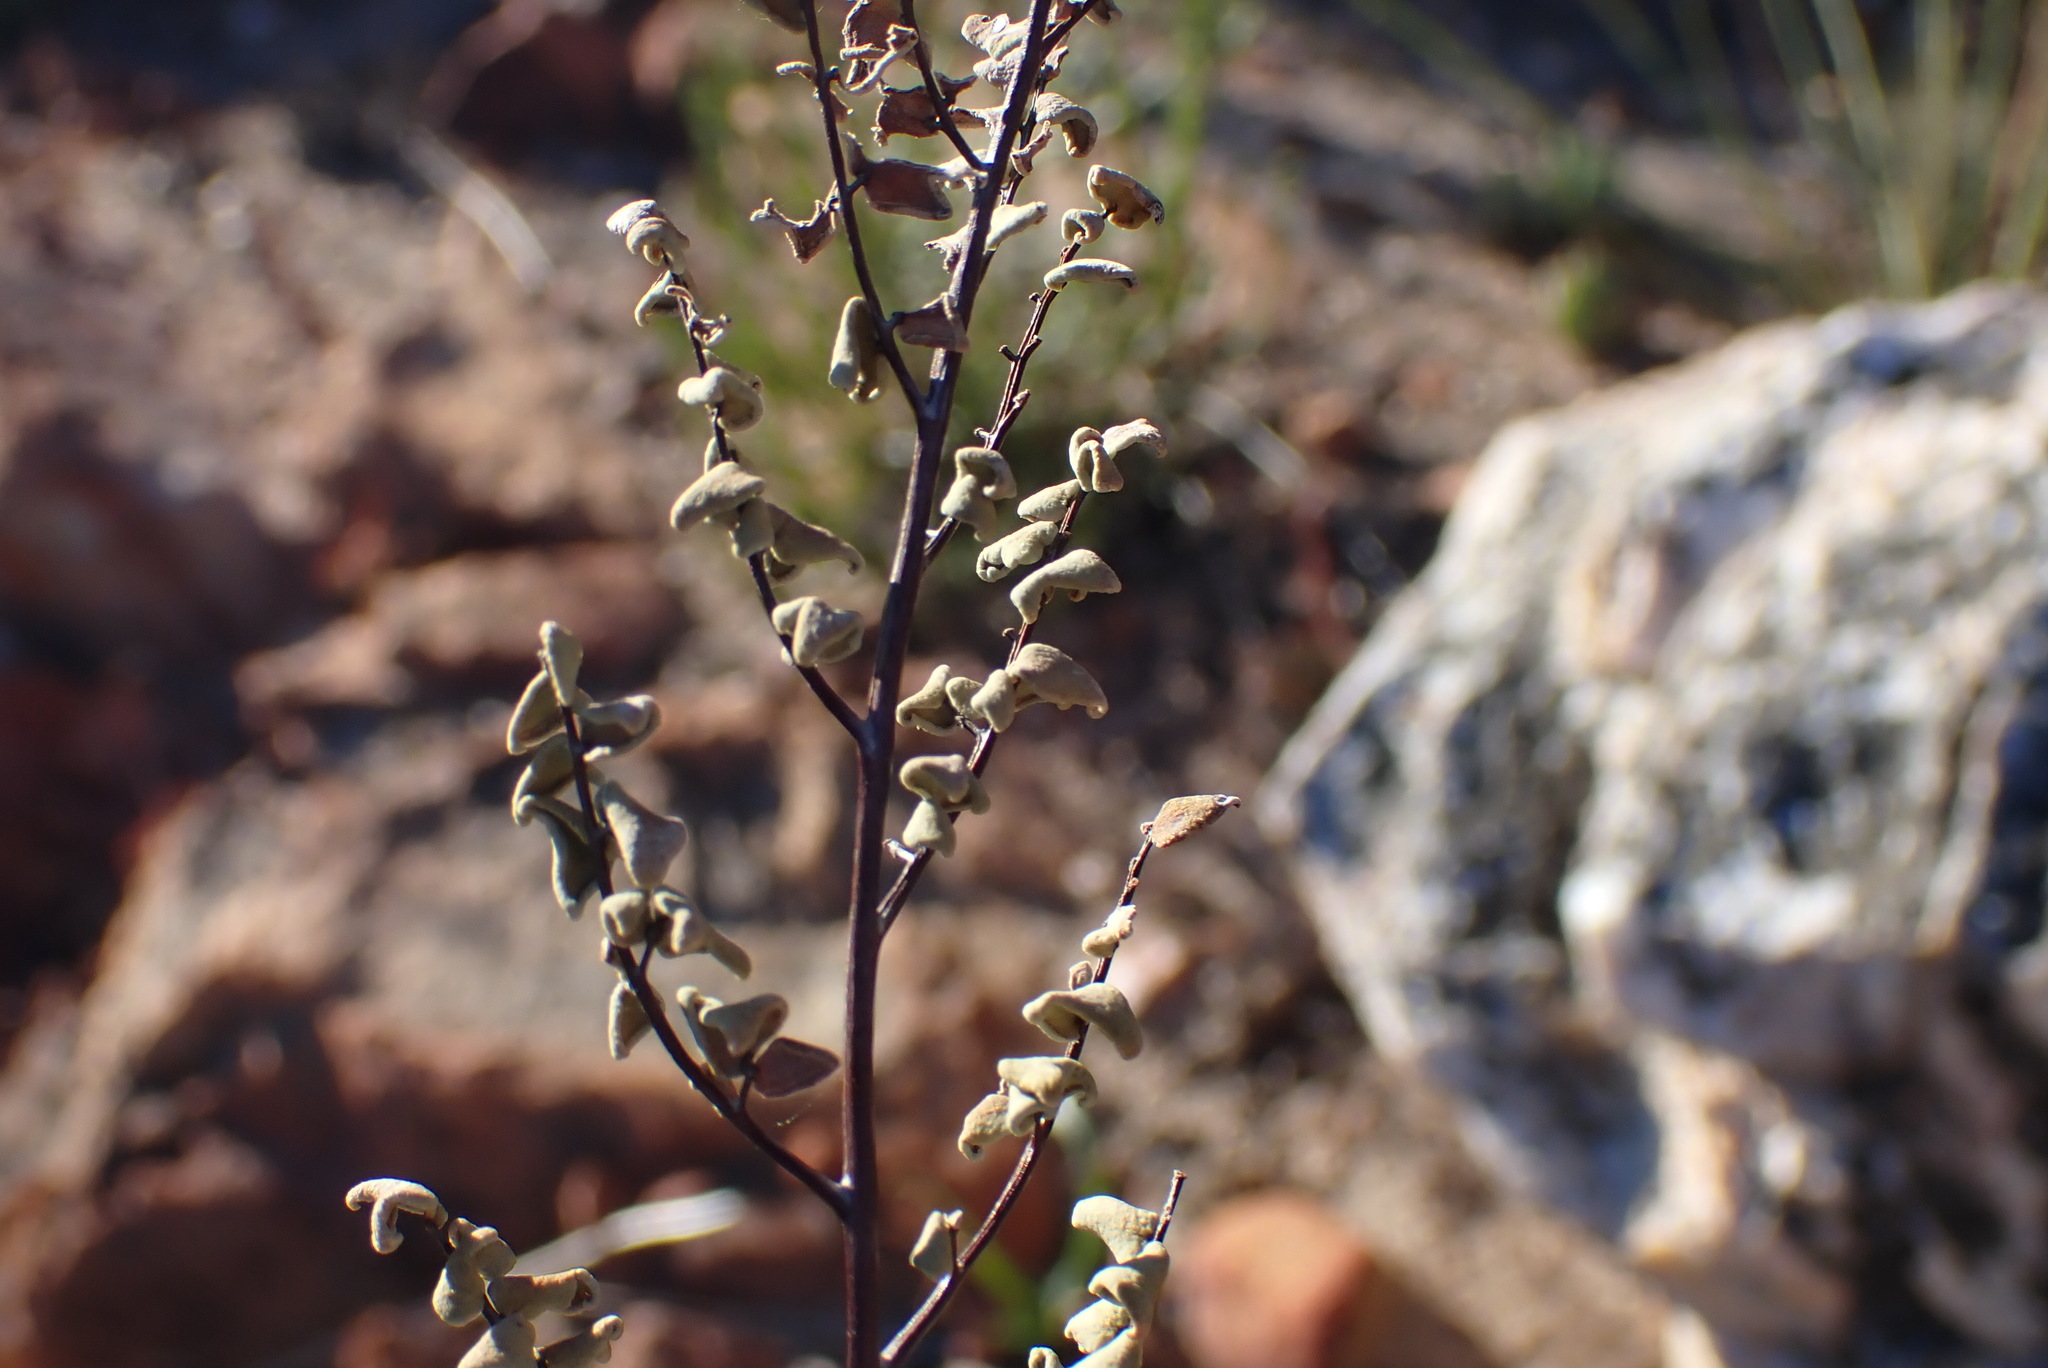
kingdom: Plantae
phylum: Tracheophyta
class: Polypodiopsida
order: Polypodiales
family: Pteridaceae
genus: Pellaea
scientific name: Pellaea calomelanos
